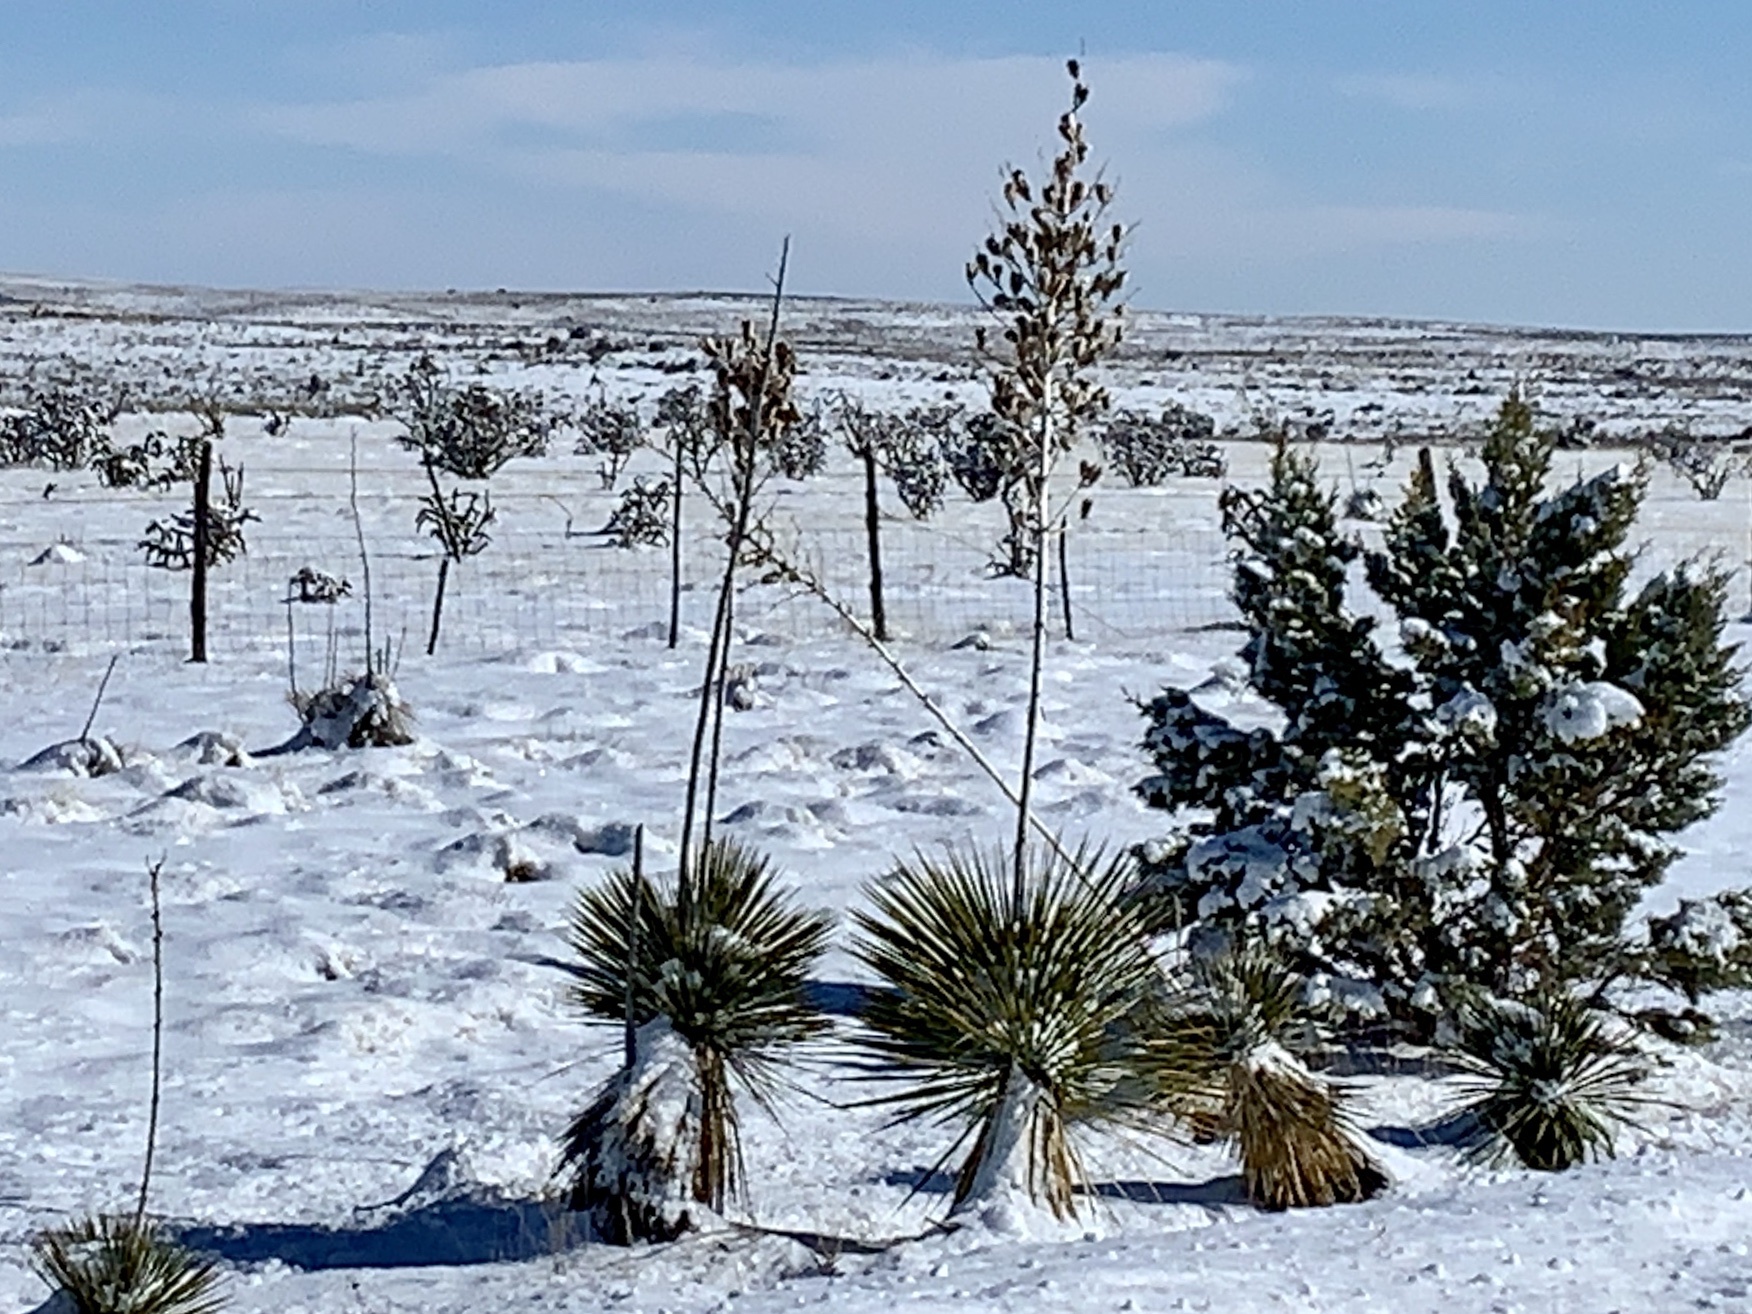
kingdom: Plantae
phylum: Tracheophyta
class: Liliopsida
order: Asparagales
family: Asparagaceae
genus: Yucca
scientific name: Yucca elata
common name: Palmella
